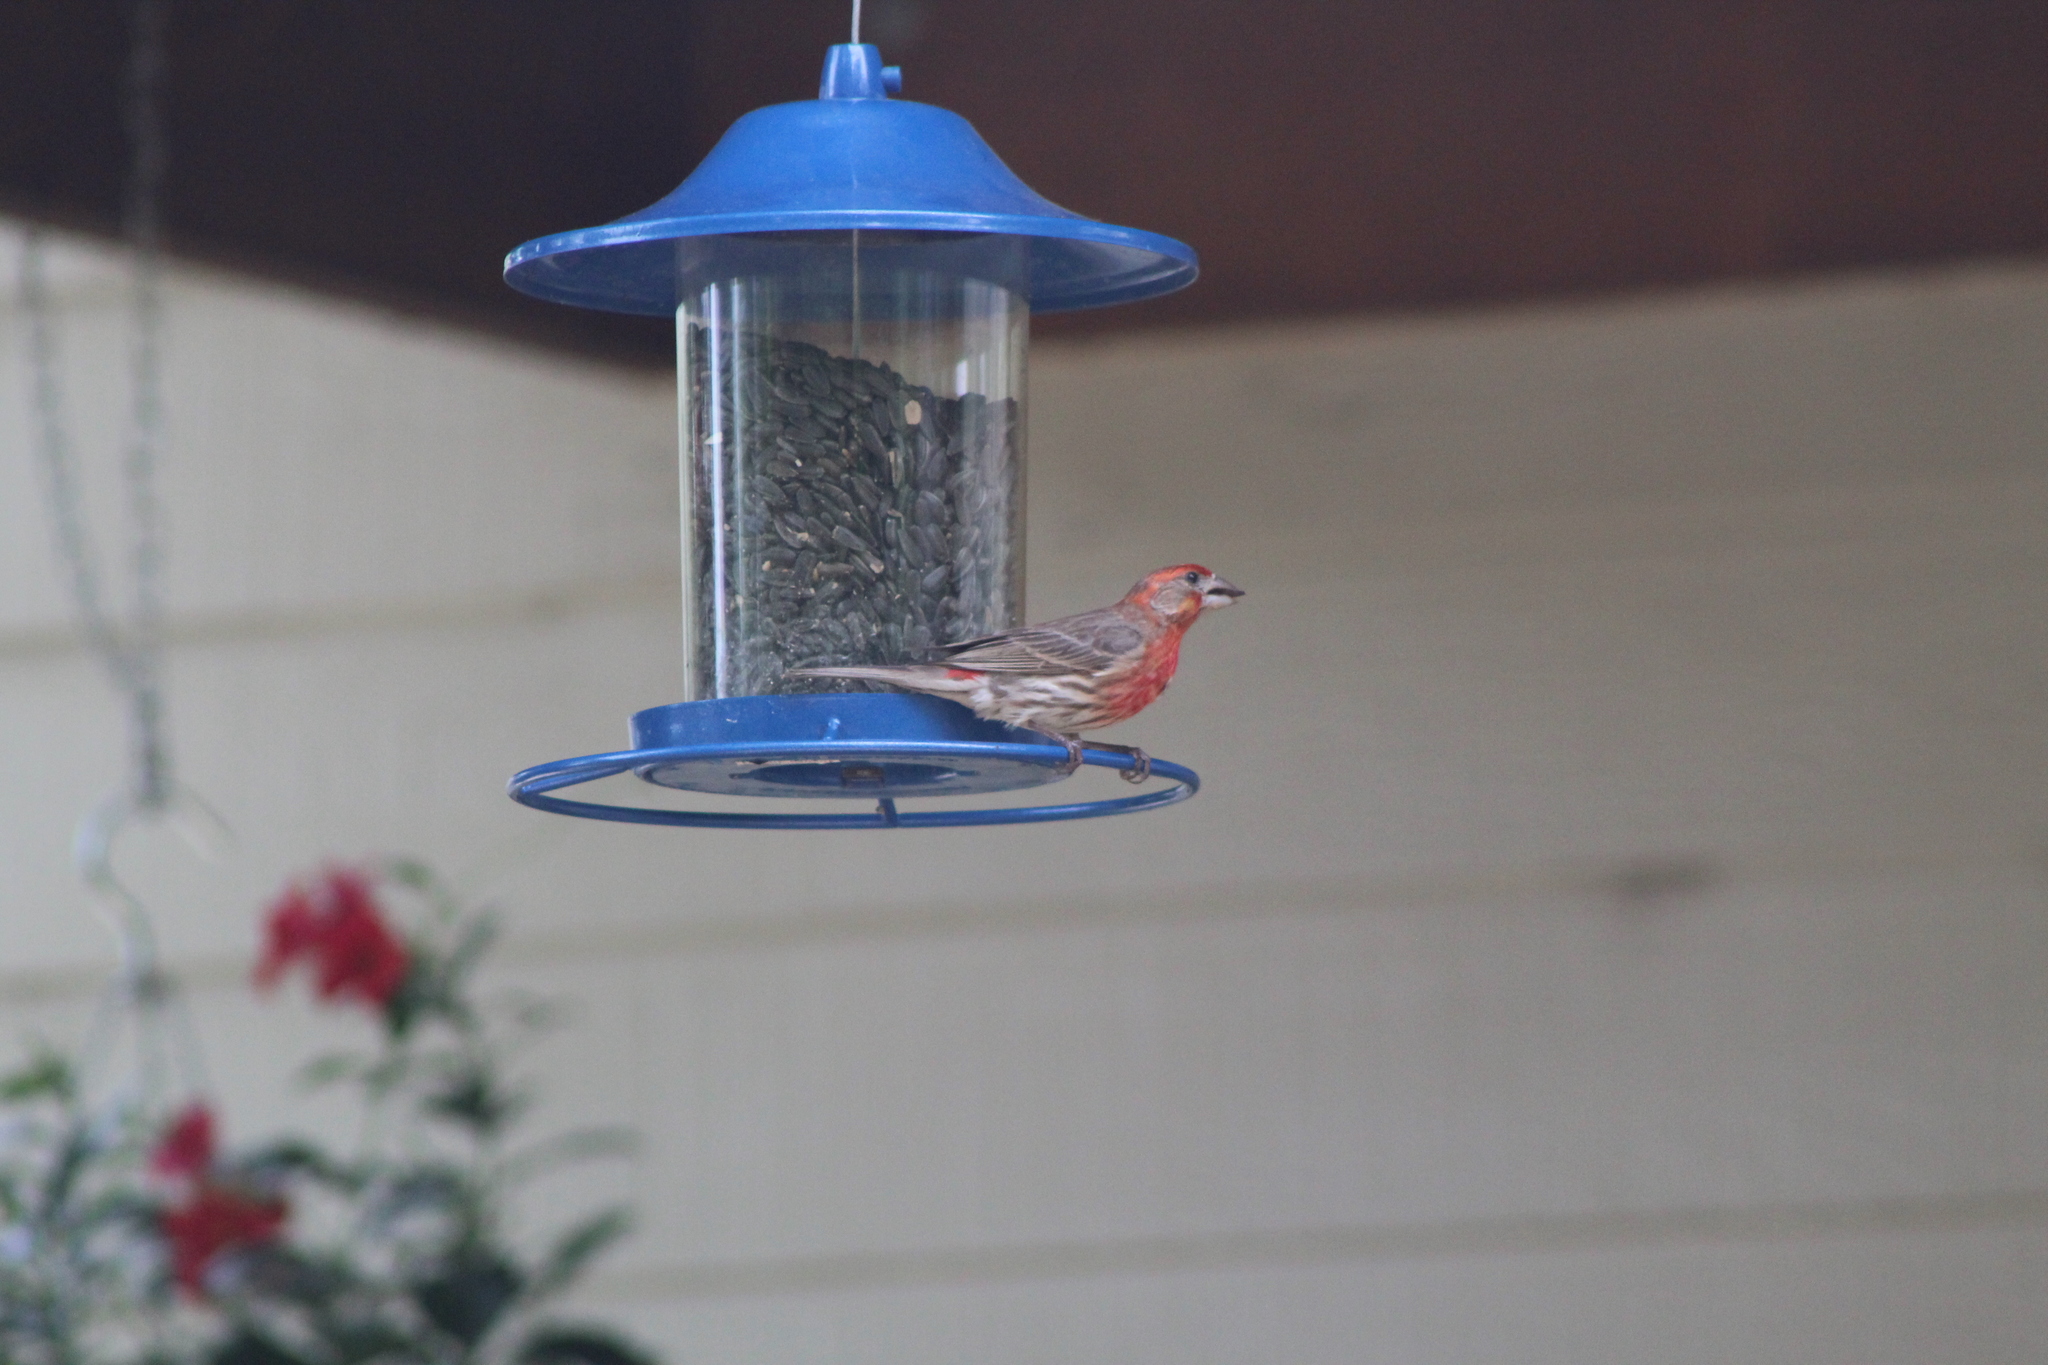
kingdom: Animalia
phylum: Chordata
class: Aves
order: Passeriformes
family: Fringillidae
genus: Haemorhous
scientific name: Haemorhous mexicanus
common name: House finch
